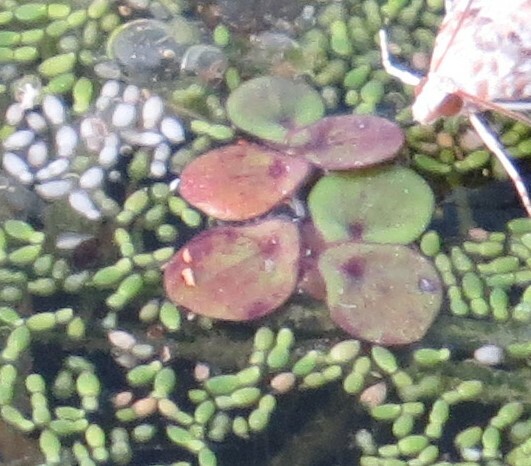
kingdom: Plantae
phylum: Tracheophyta
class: Liliopsida
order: Alismatales
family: Araceae
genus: Spirodela
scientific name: Spirodela polyrhiza
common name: Great duckweed
